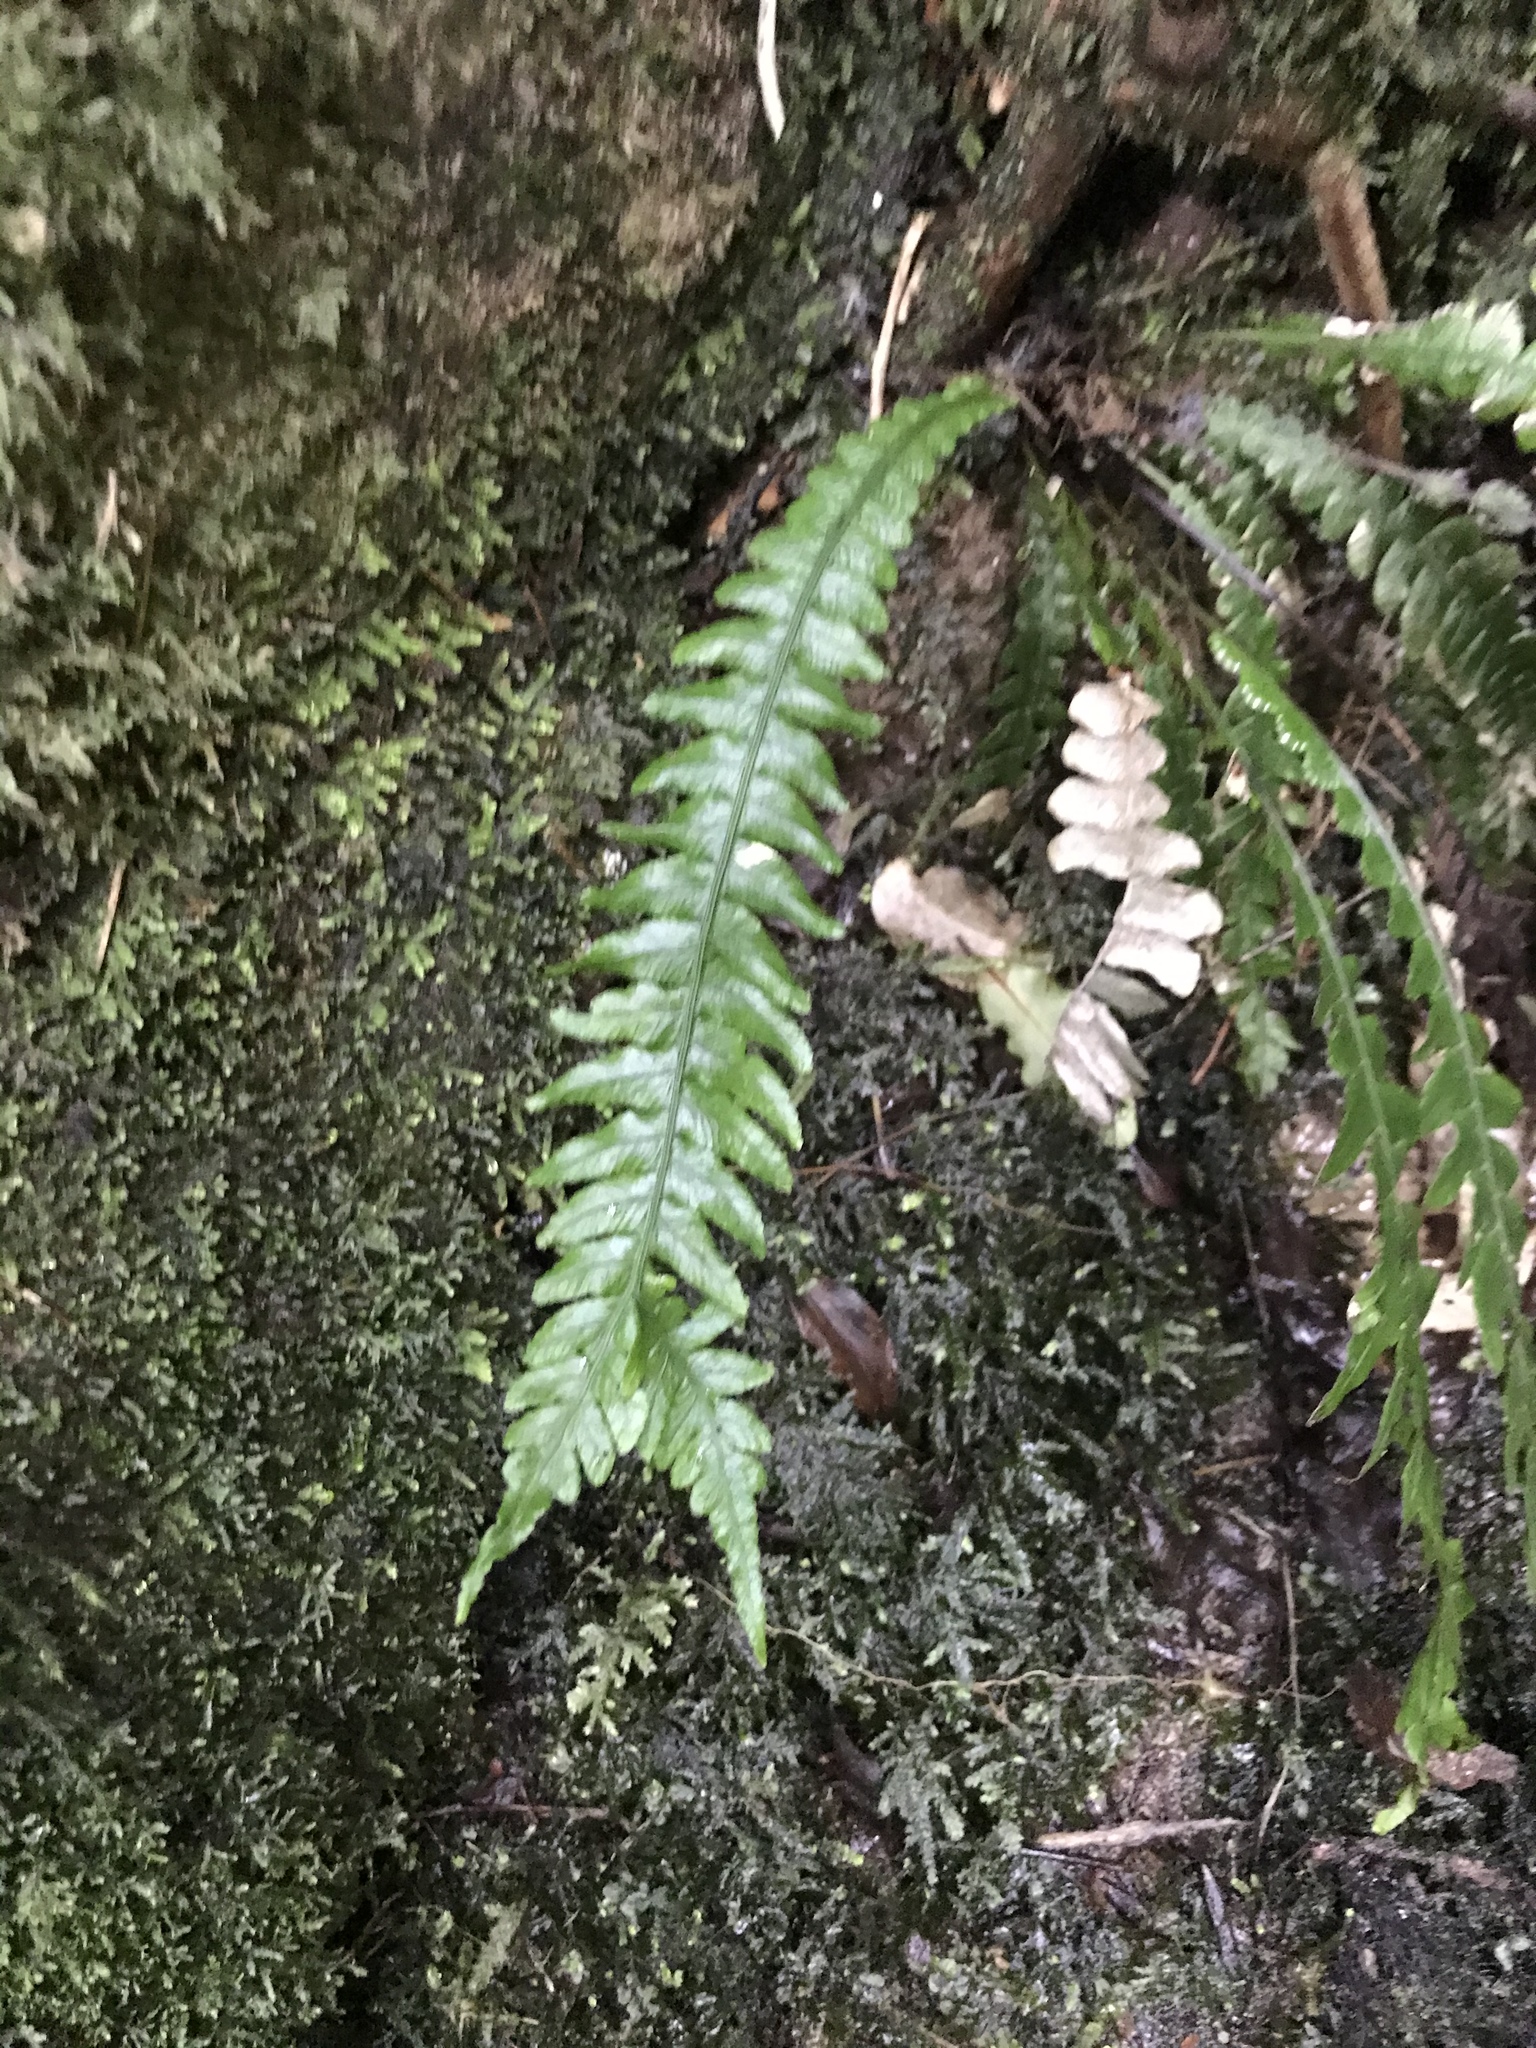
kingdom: Plantae
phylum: Tracheophyta
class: Polypodiopsida
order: Polypodiales
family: Blechnaceae
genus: Austroblechnum
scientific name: Austroblechnum lanceolatum
